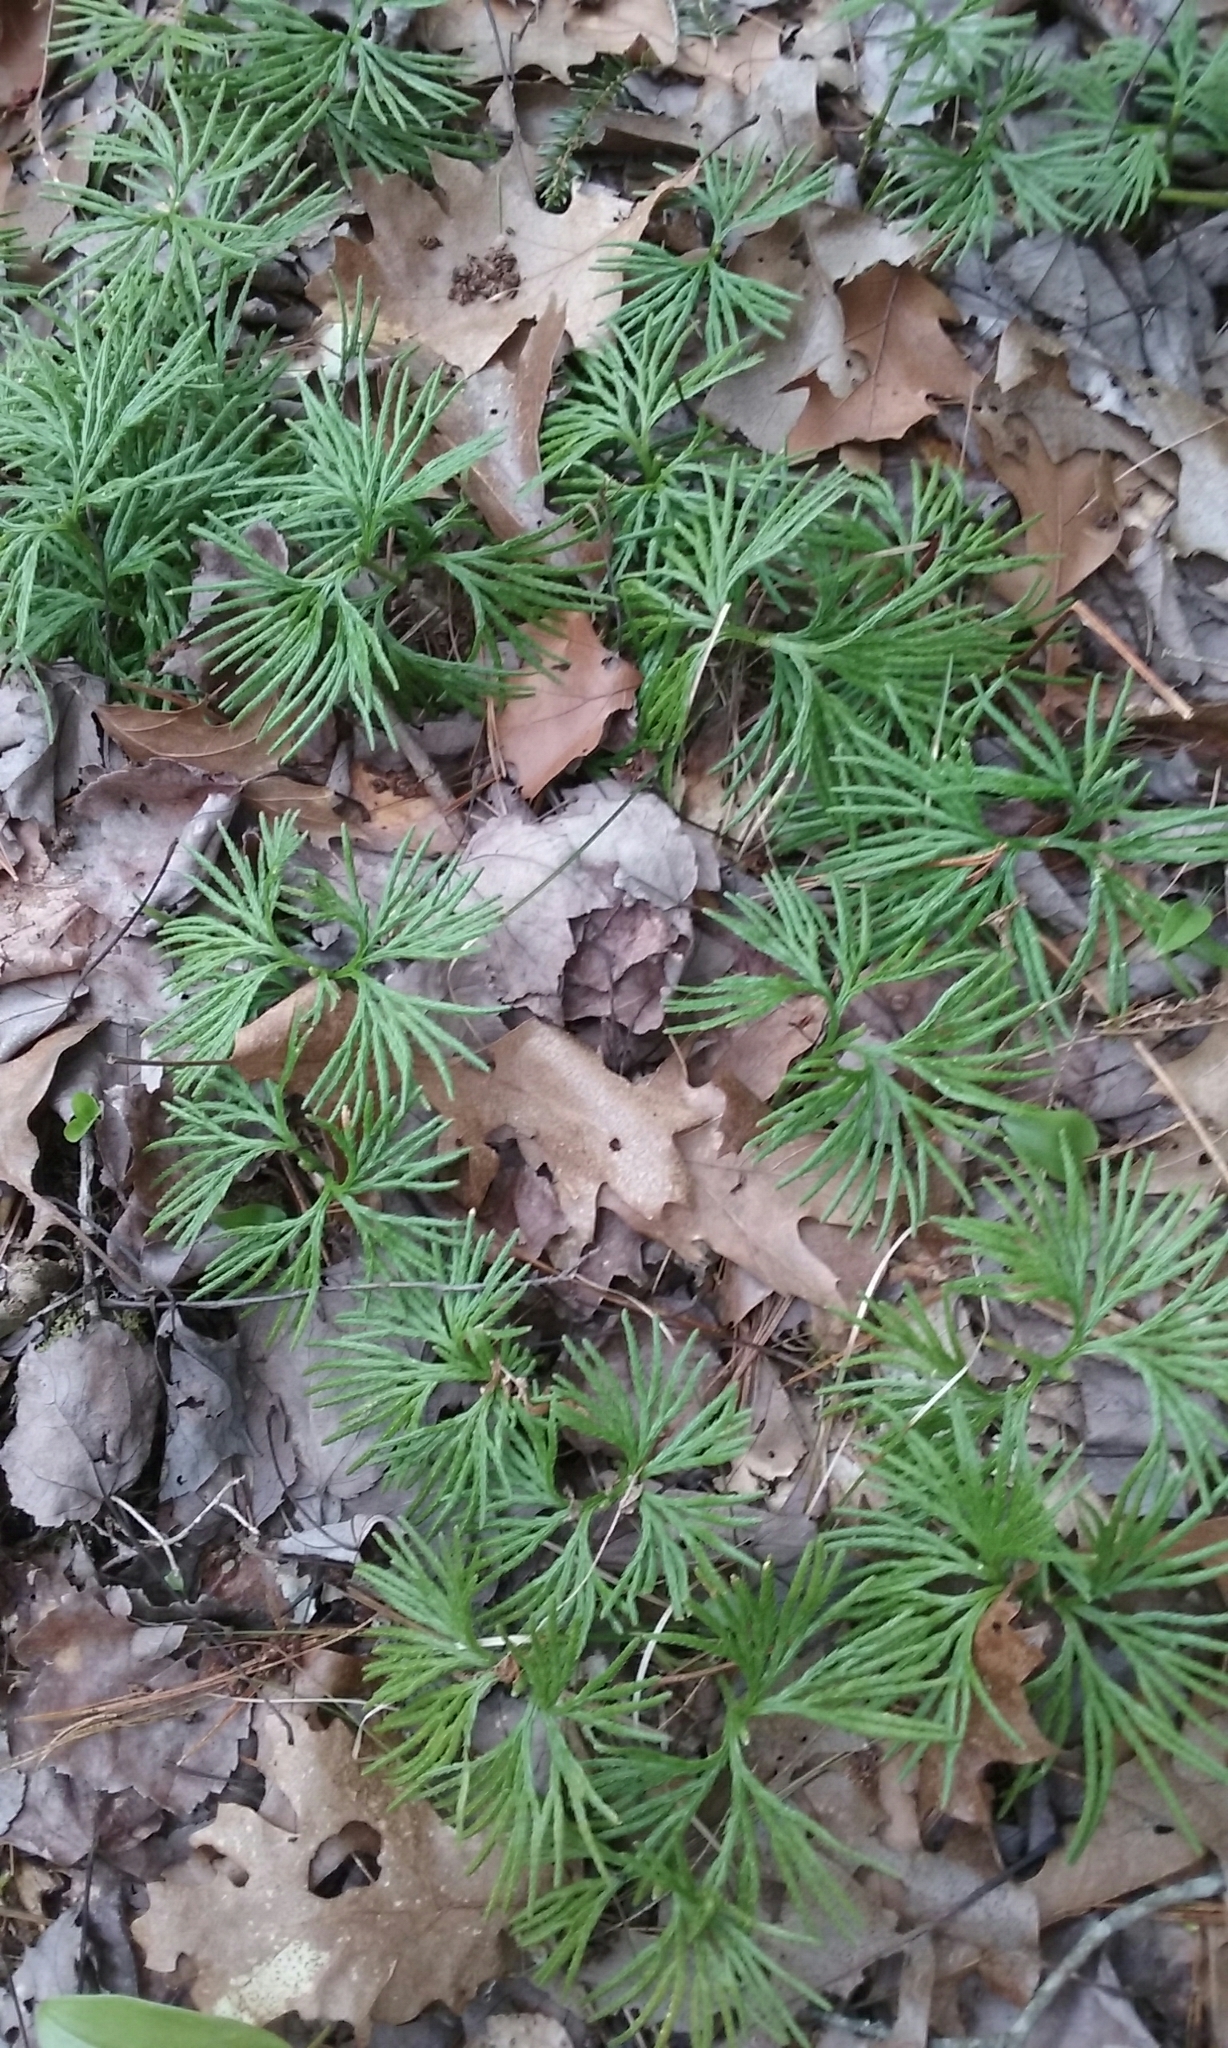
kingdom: Plantae
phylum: Tracheophyta
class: Lycopodiopsida
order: Lycopodiales
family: Lycopodiaceae
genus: Diphasiastrum
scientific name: Diphasiastrum digitatum
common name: Southern running-pine
